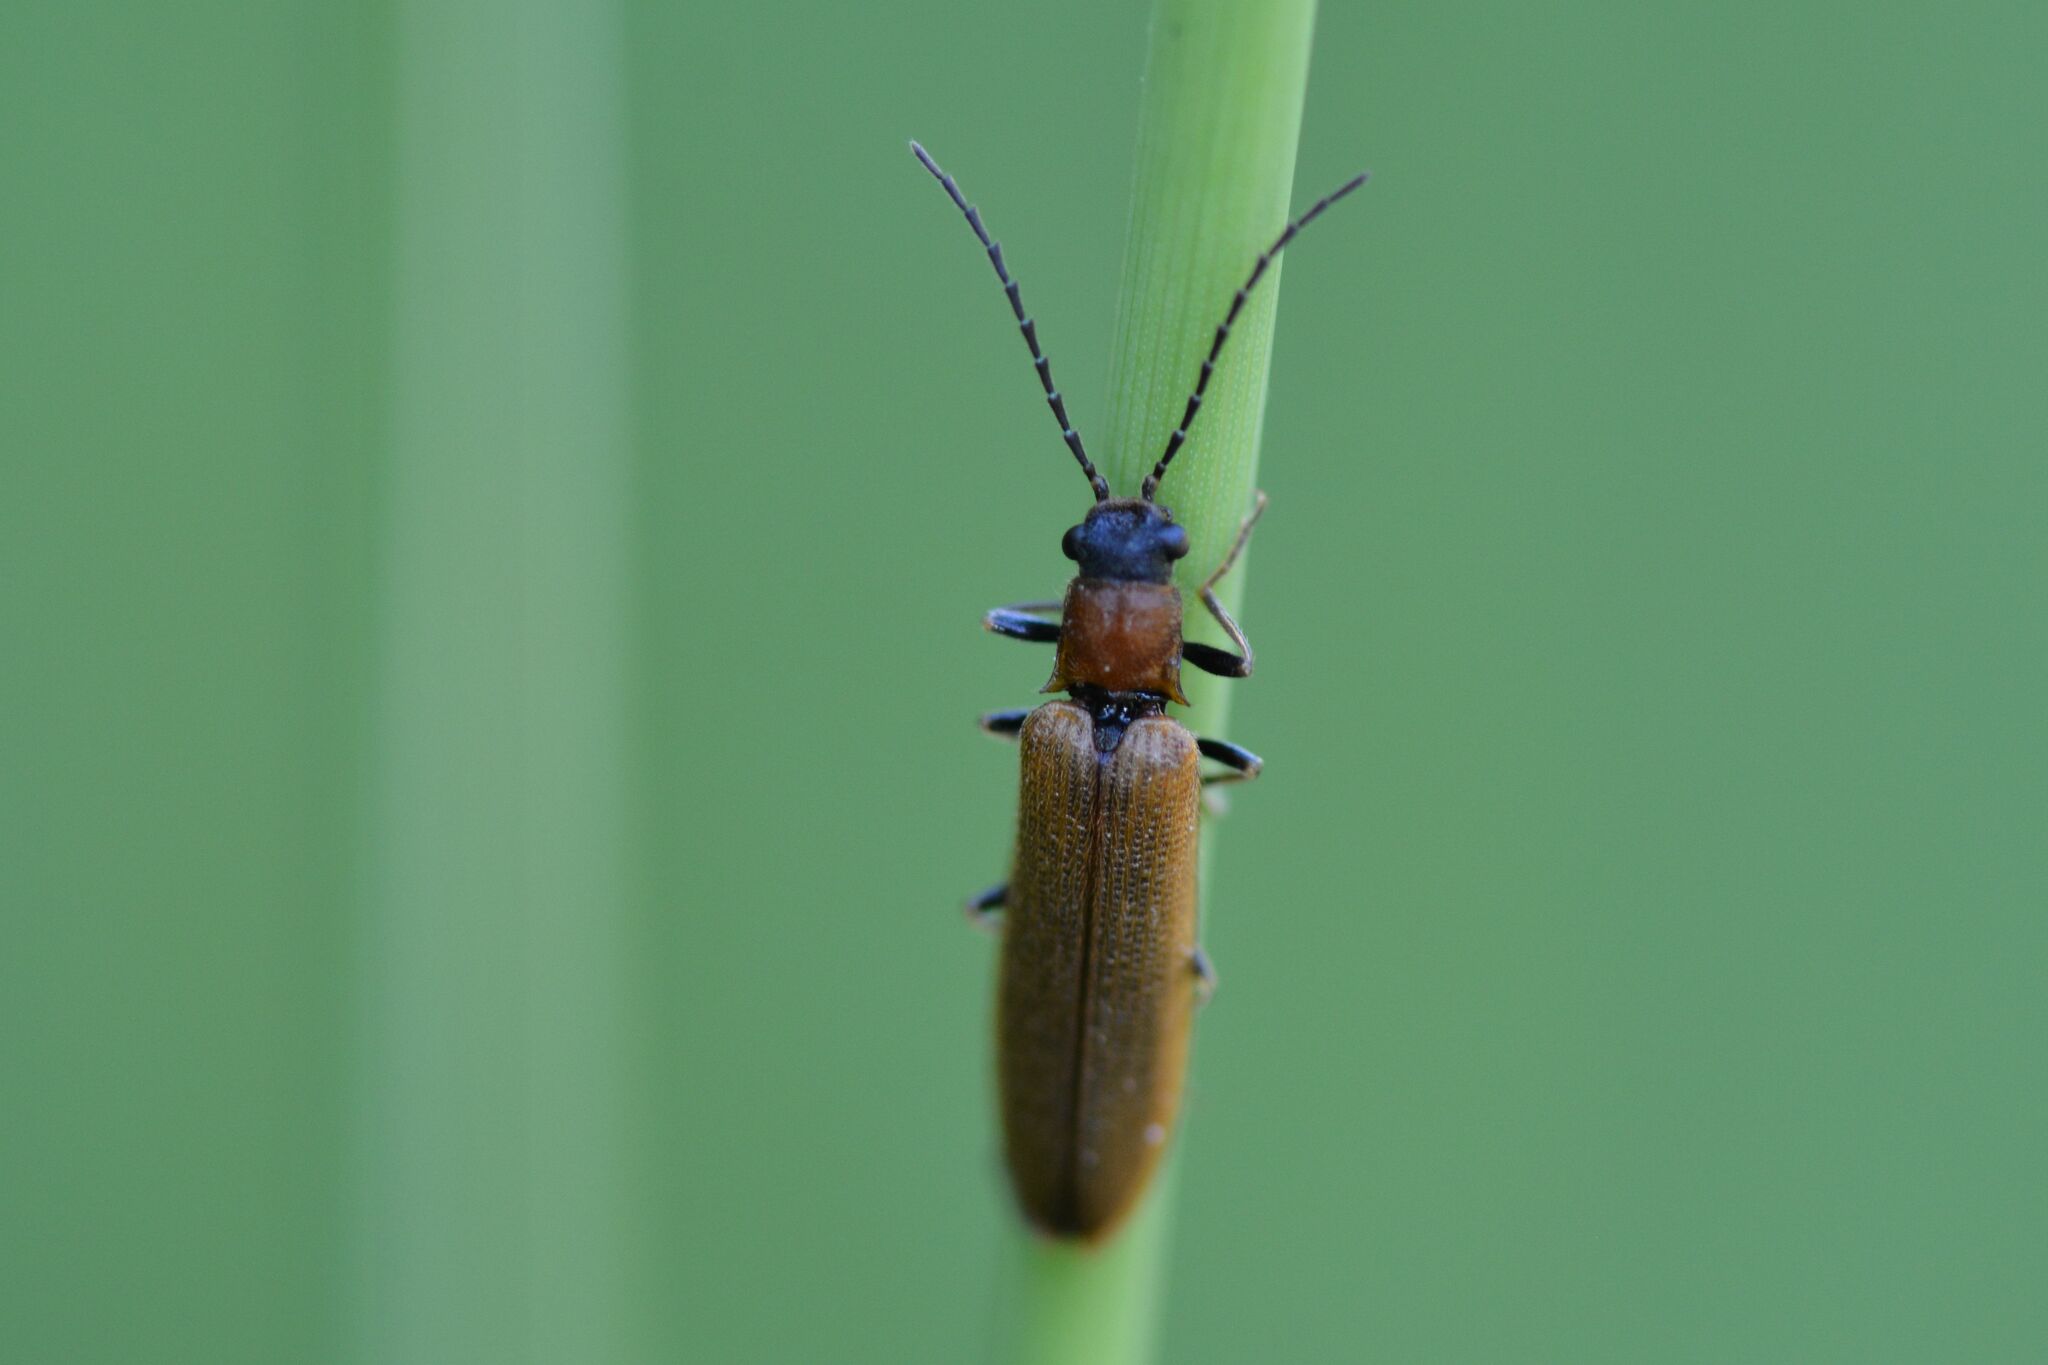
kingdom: Animalia
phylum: Arthropoda
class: Insecta
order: Coleoptera
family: Elateridae
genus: Denticollis
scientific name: Denticollis linearis
